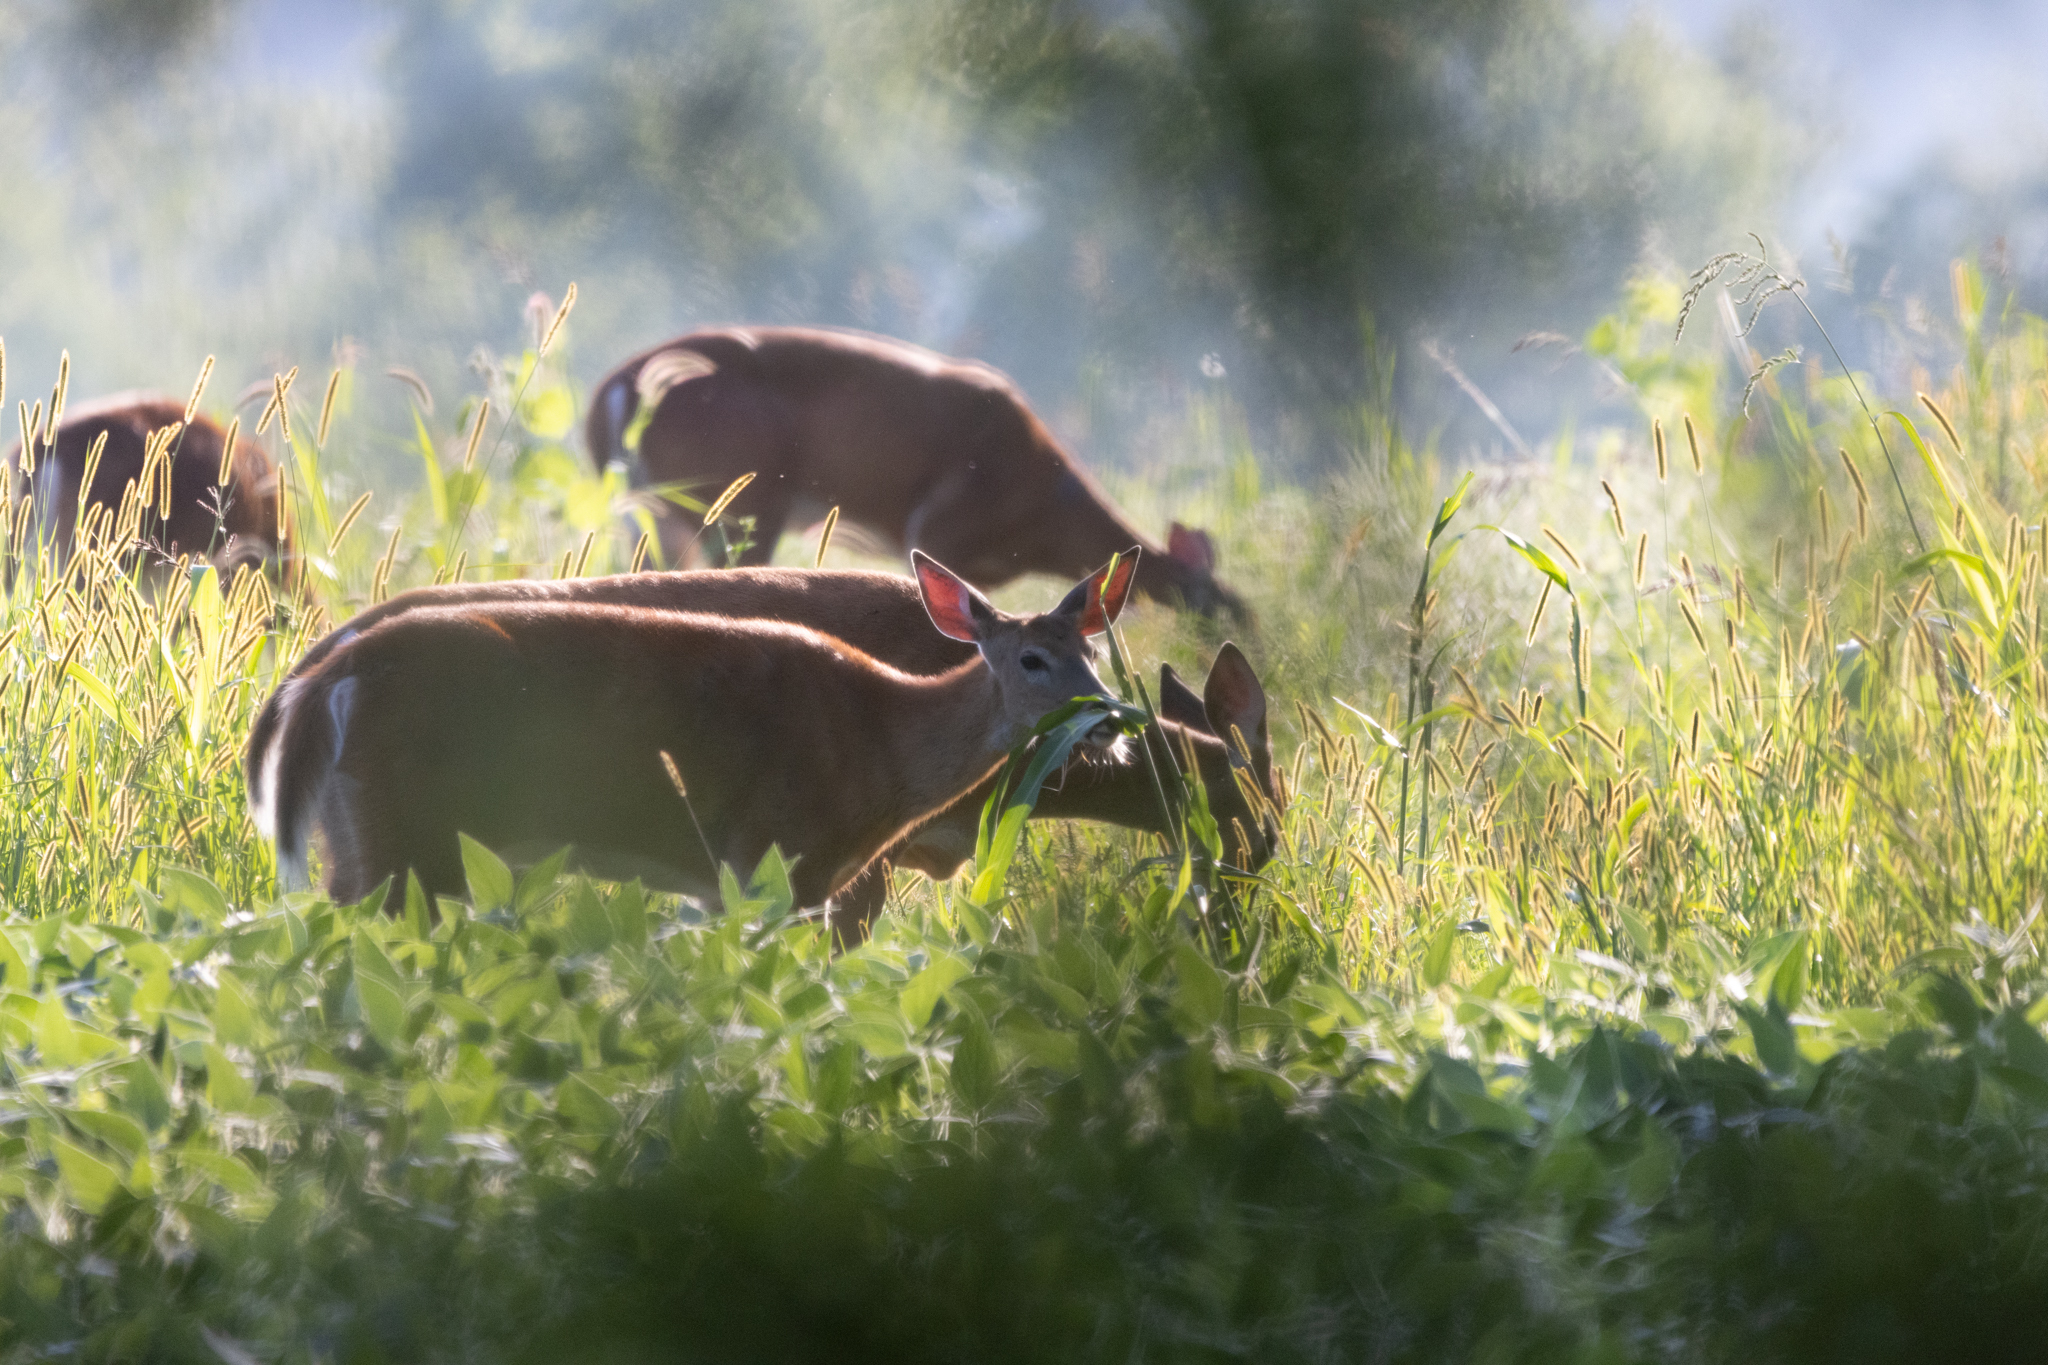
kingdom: Animalia
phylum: Chordata
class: Mammalia
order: Artiodactyla
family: Cervidae
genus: Odocoileus
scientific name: Odocoileus virginianus
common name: White-tailed deer
